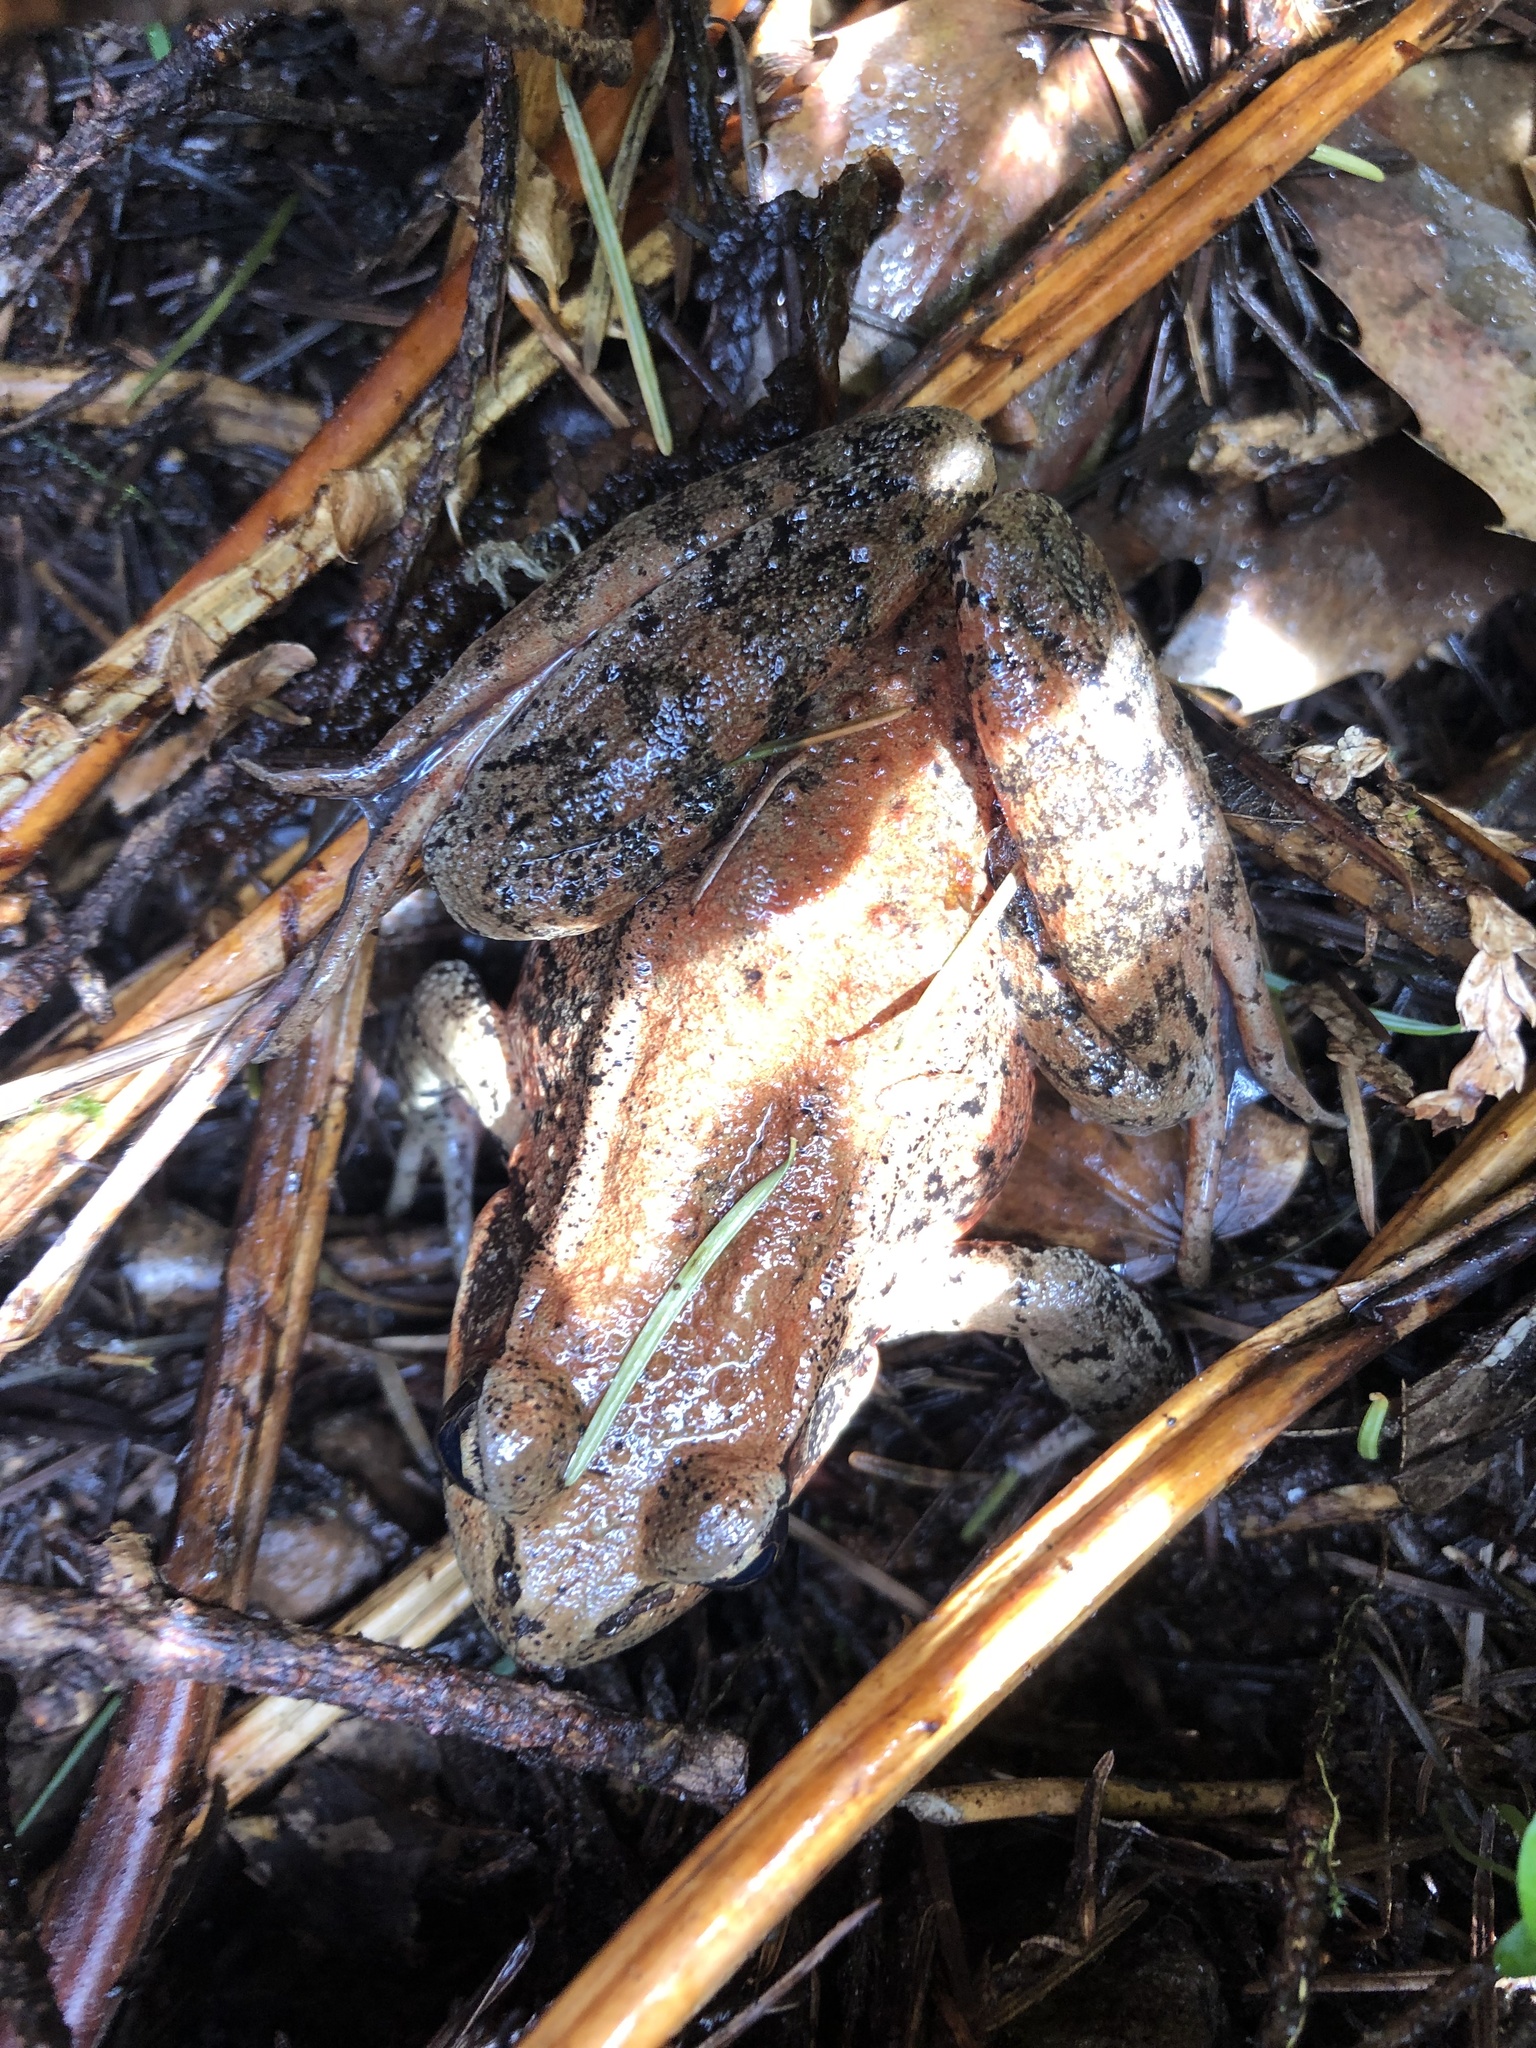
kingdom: Animalia
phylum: Chordata
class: Amphibia
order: Anura
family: Ranidae
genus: Rana
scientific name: Rana aurora
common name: Red-legged frog
